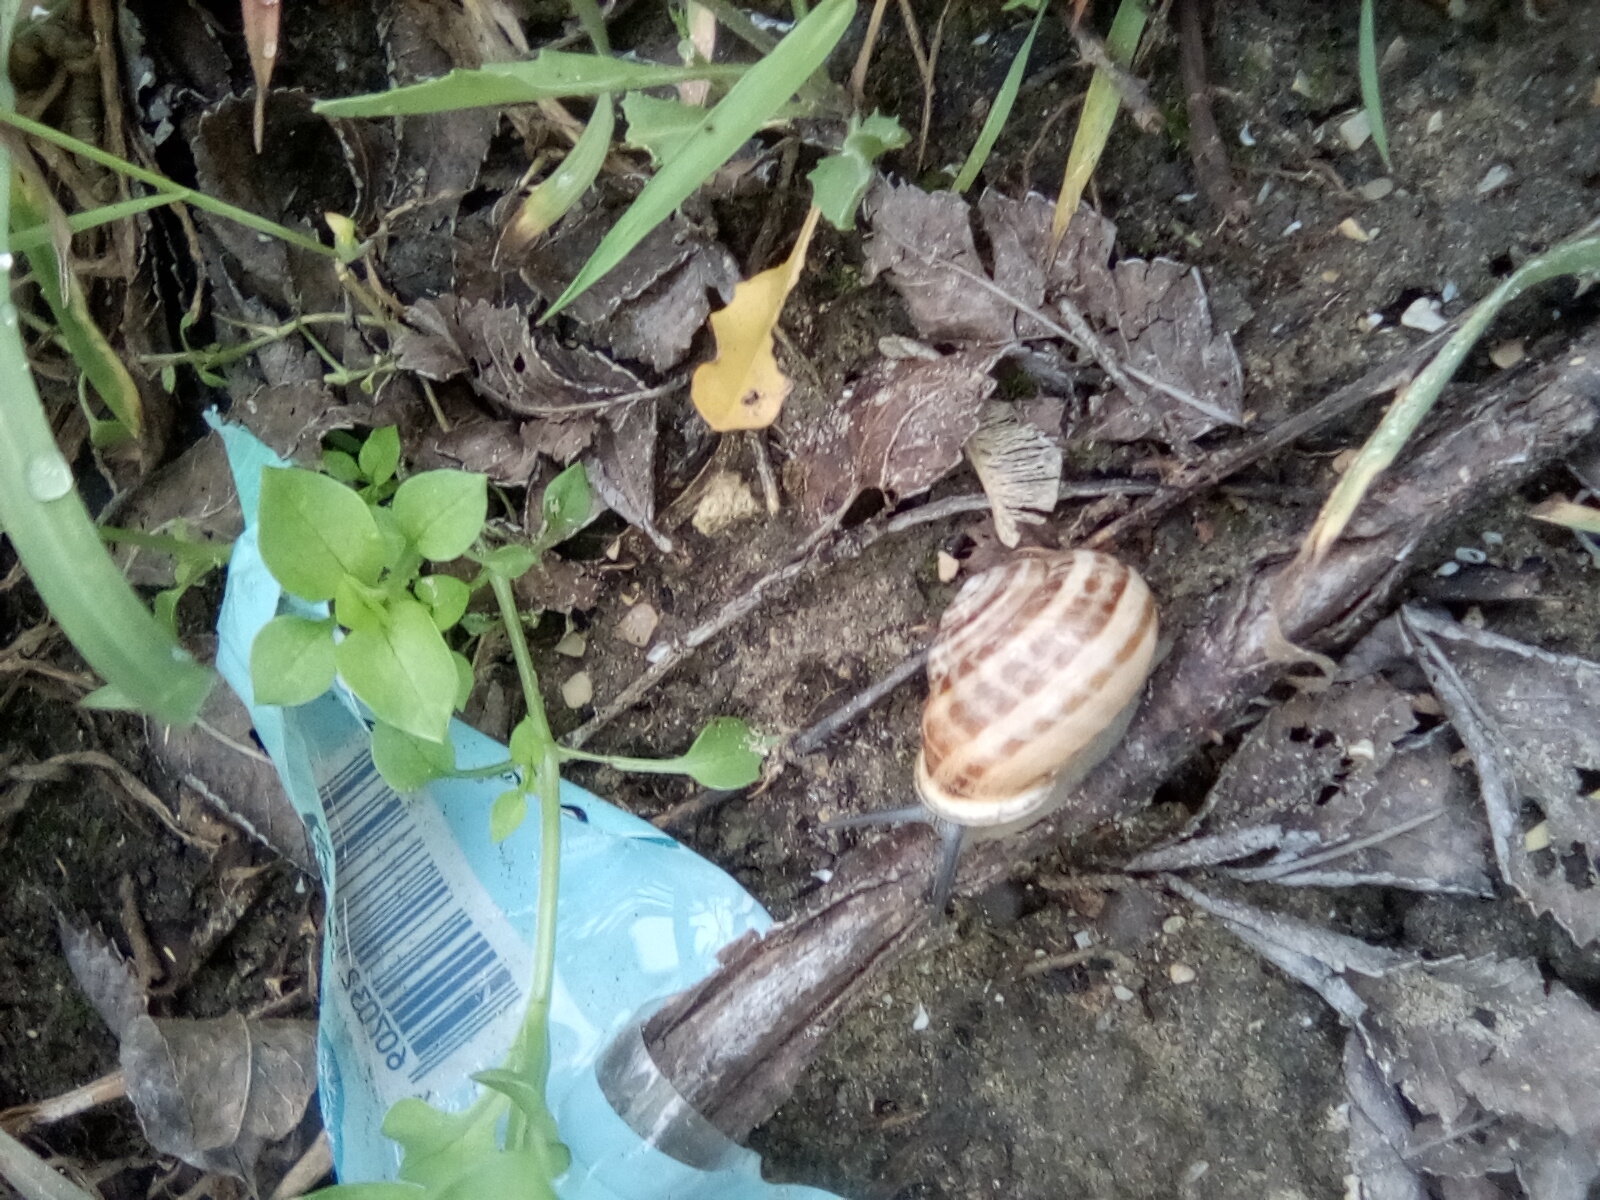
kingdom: Animalia
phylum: Mollusca
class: Gastropoda
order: Stylommatophora
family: Helicidae
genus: Eobania
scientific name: Eobania vermiculata
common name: Chocolateband snail
